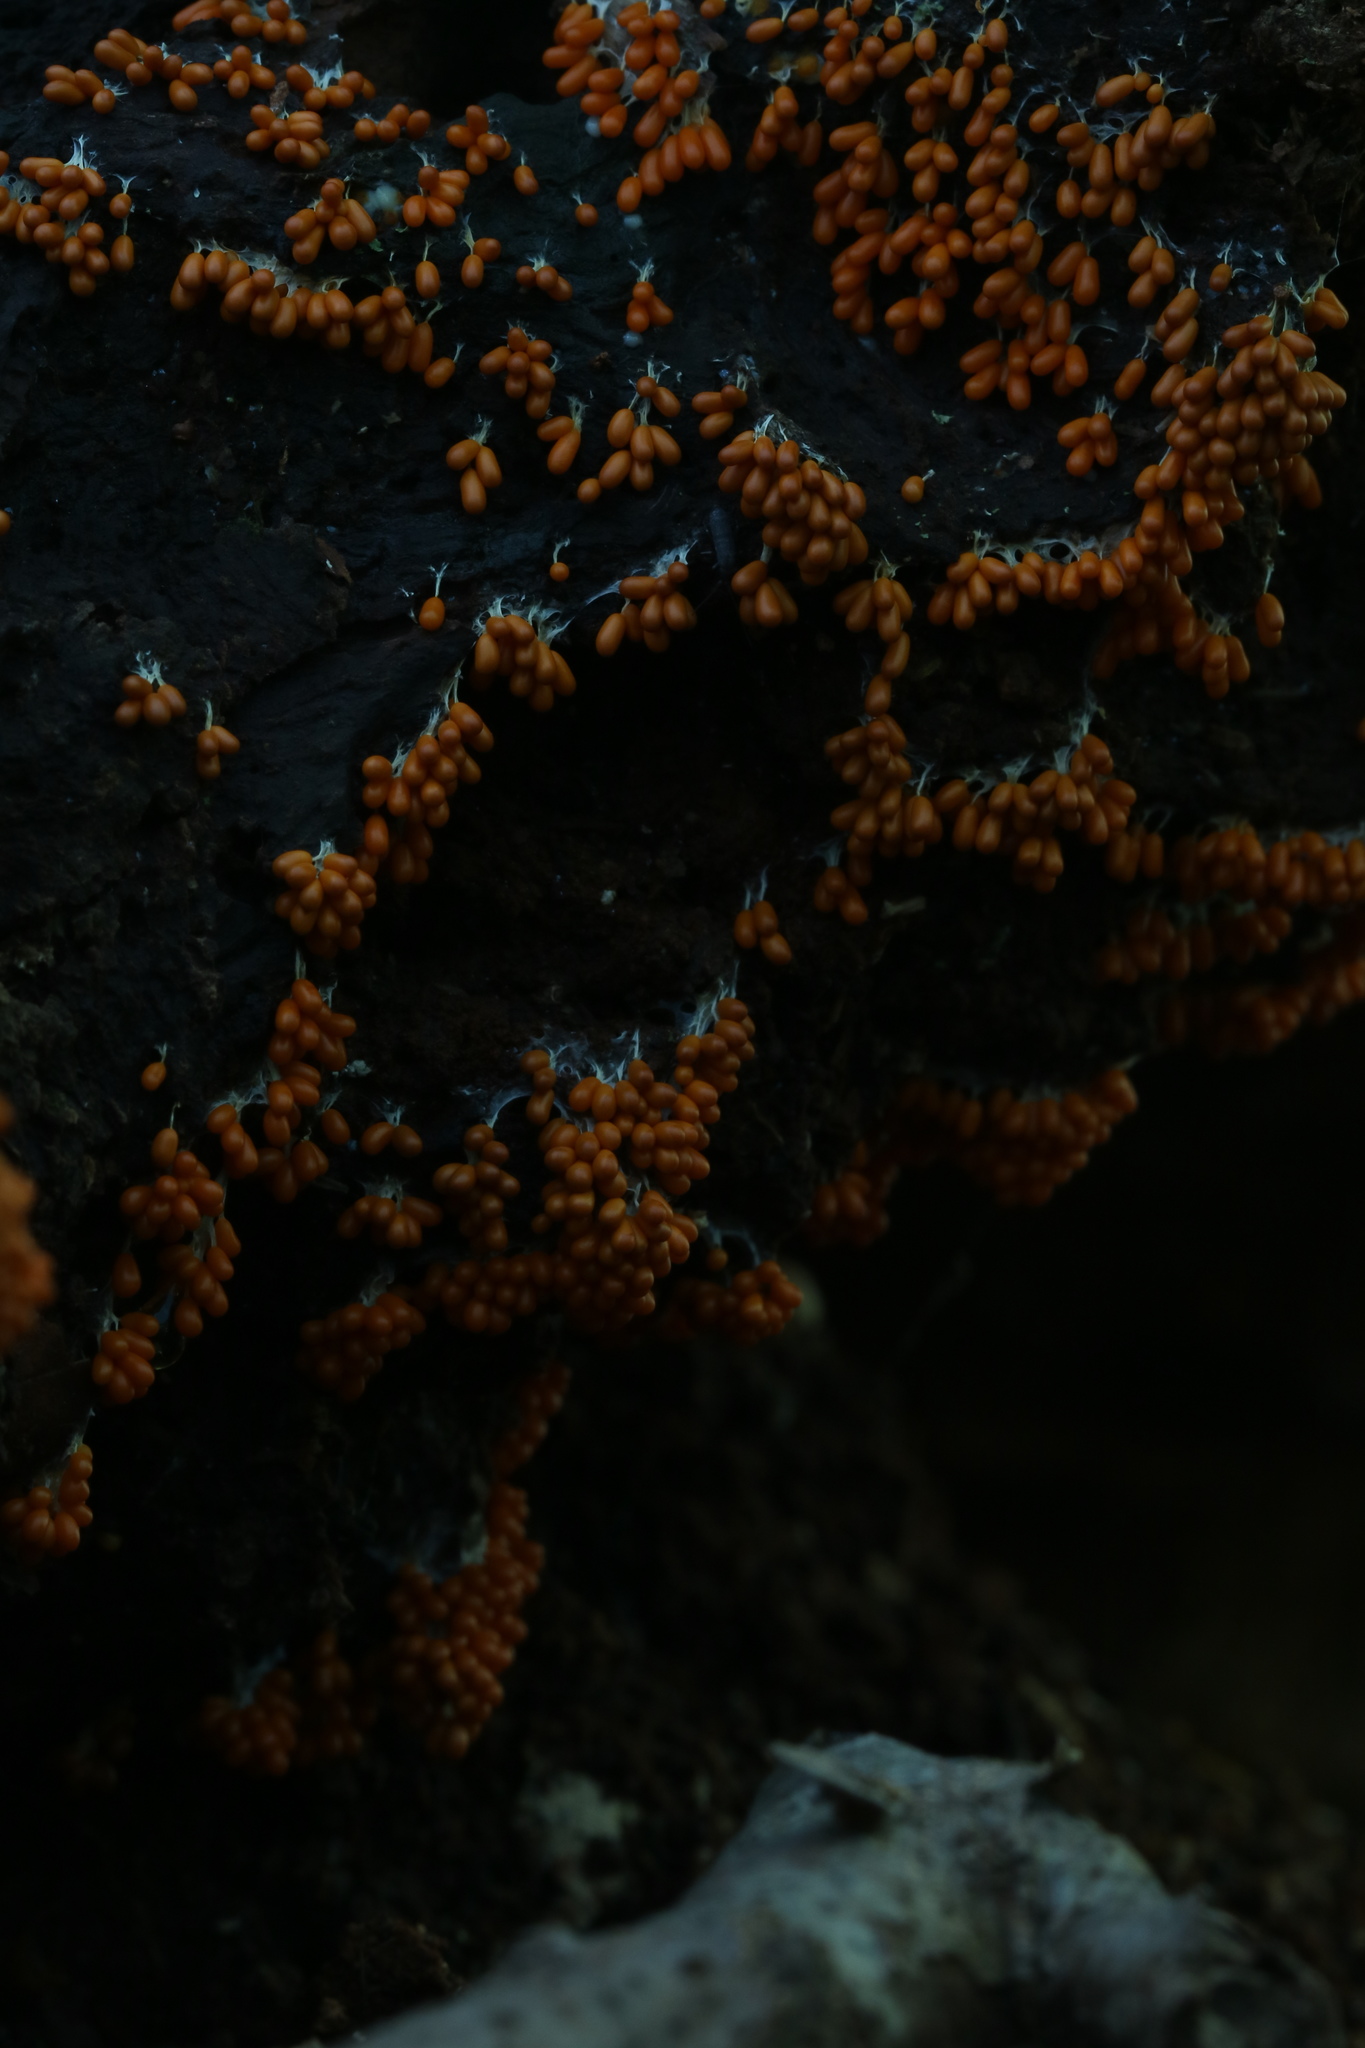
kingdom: Protozoa
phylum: Mycetozoa
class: Myxomycetes
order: Physarales
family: Physaraceae
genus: Leocarpus
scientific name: Leocarpus fragilis
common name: Insect-egg slime
